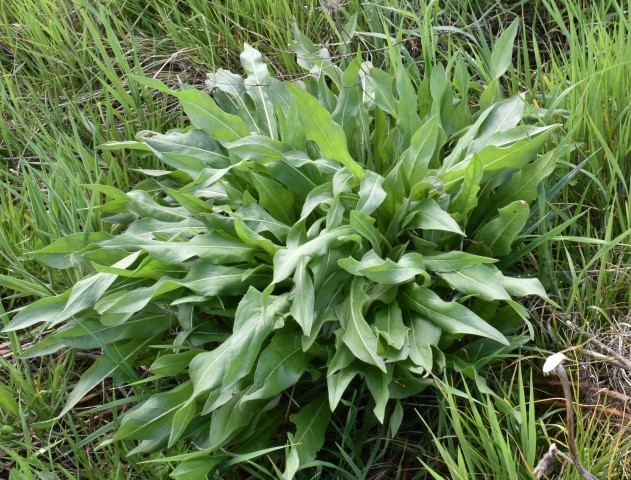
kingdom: Plantae
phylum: Tracheophyta
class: Magnoliopsida
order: Asterales
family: Asteraceae
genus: Wyethia
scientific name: Wyethia angustifolia
